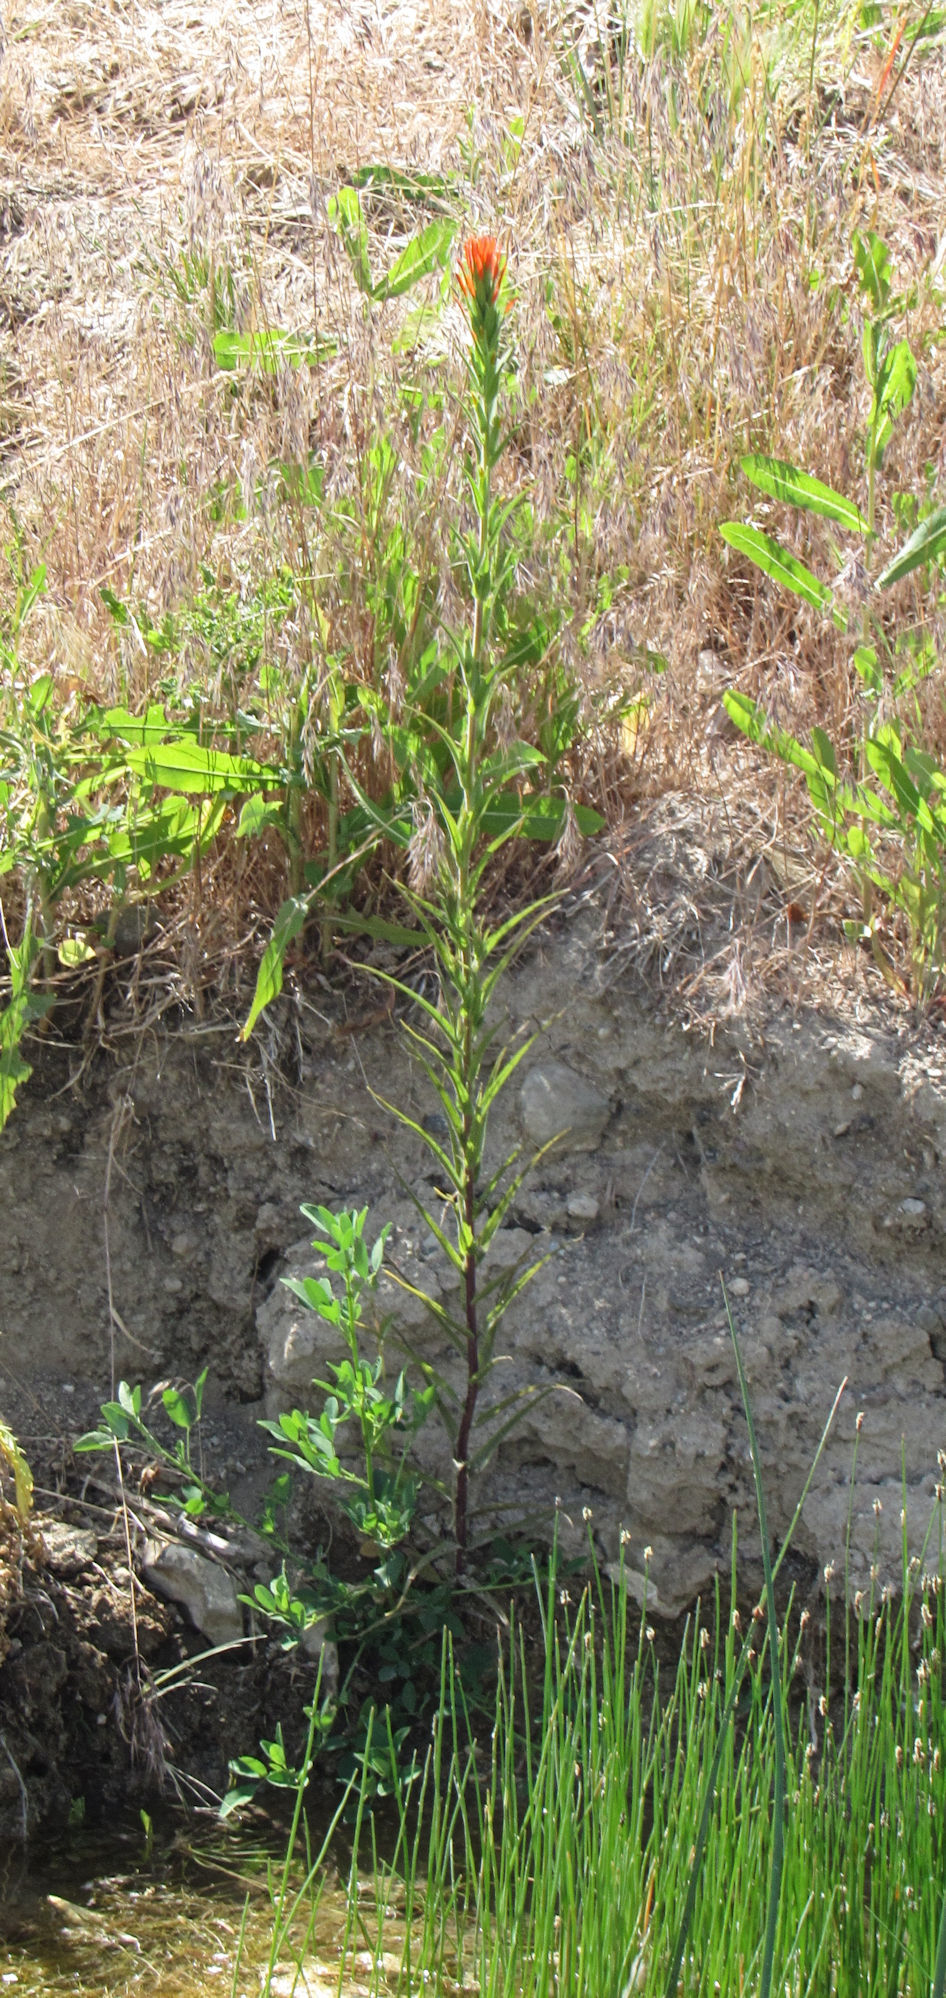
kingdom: Plantae
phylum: Tracheophyta
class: Magnoliopsida
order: Lamiales
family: Orobanchaceae
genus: Castilleja
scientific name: Castilleja minor
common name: Seep paintbrush
